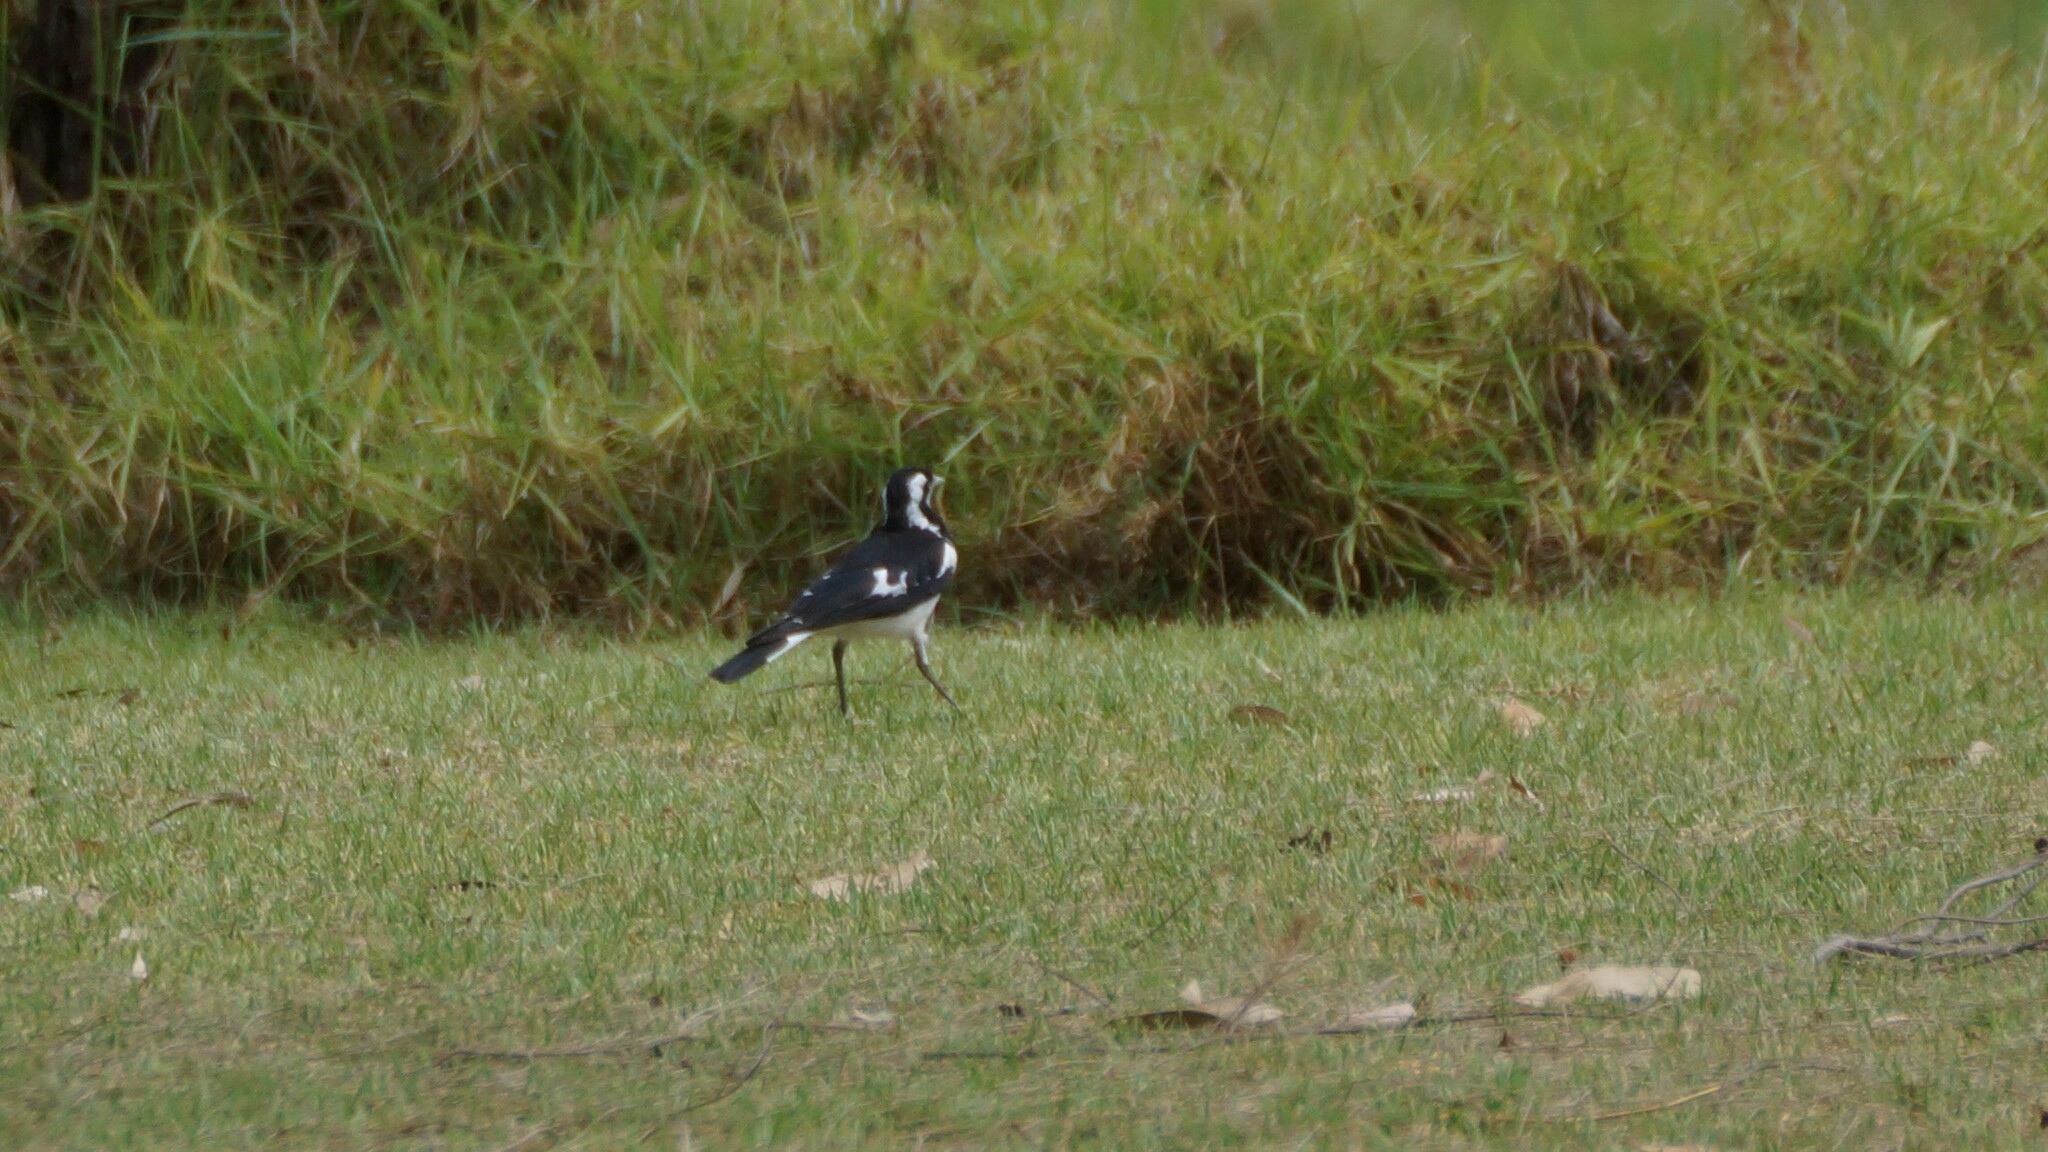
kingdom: Animalia
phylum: Chordata
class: Aves
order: Passeriformes
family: Monarchidae
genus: Grallina
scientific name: Grallina cyanoleuca
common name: Magpie-lark
